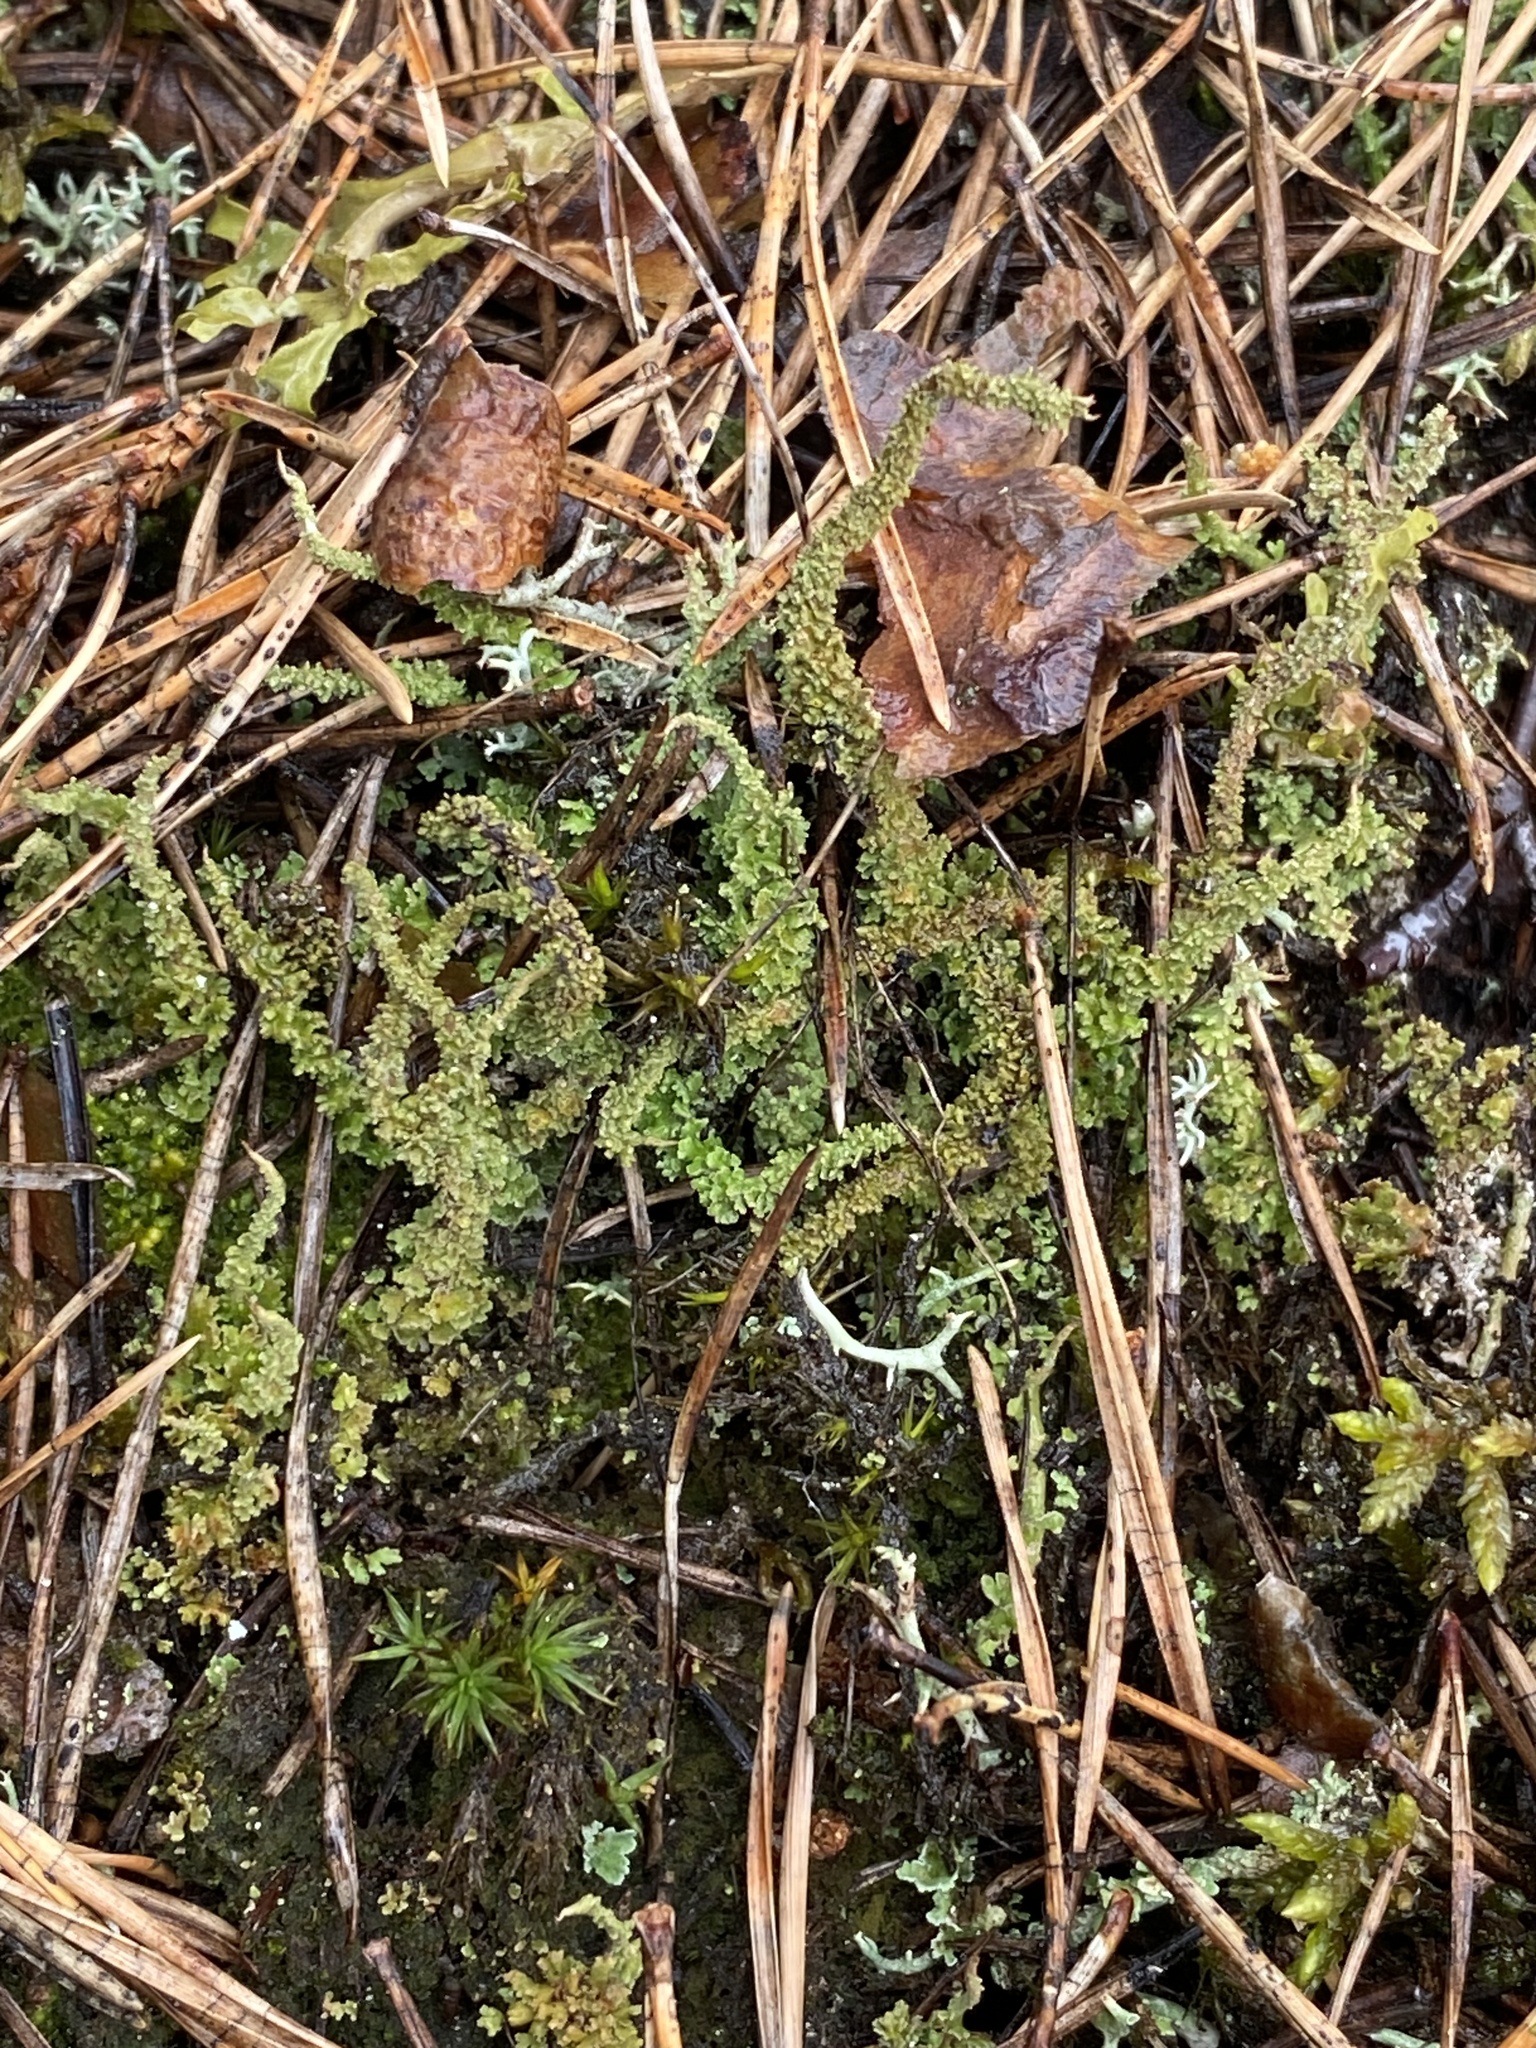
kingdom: Fungi
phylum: Ascomycota
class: Lecanoromycetes
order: Lecanorales
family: Cladoniaceae
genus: Cladonia
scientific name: Cladonia squamosa
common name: Dragon horn
